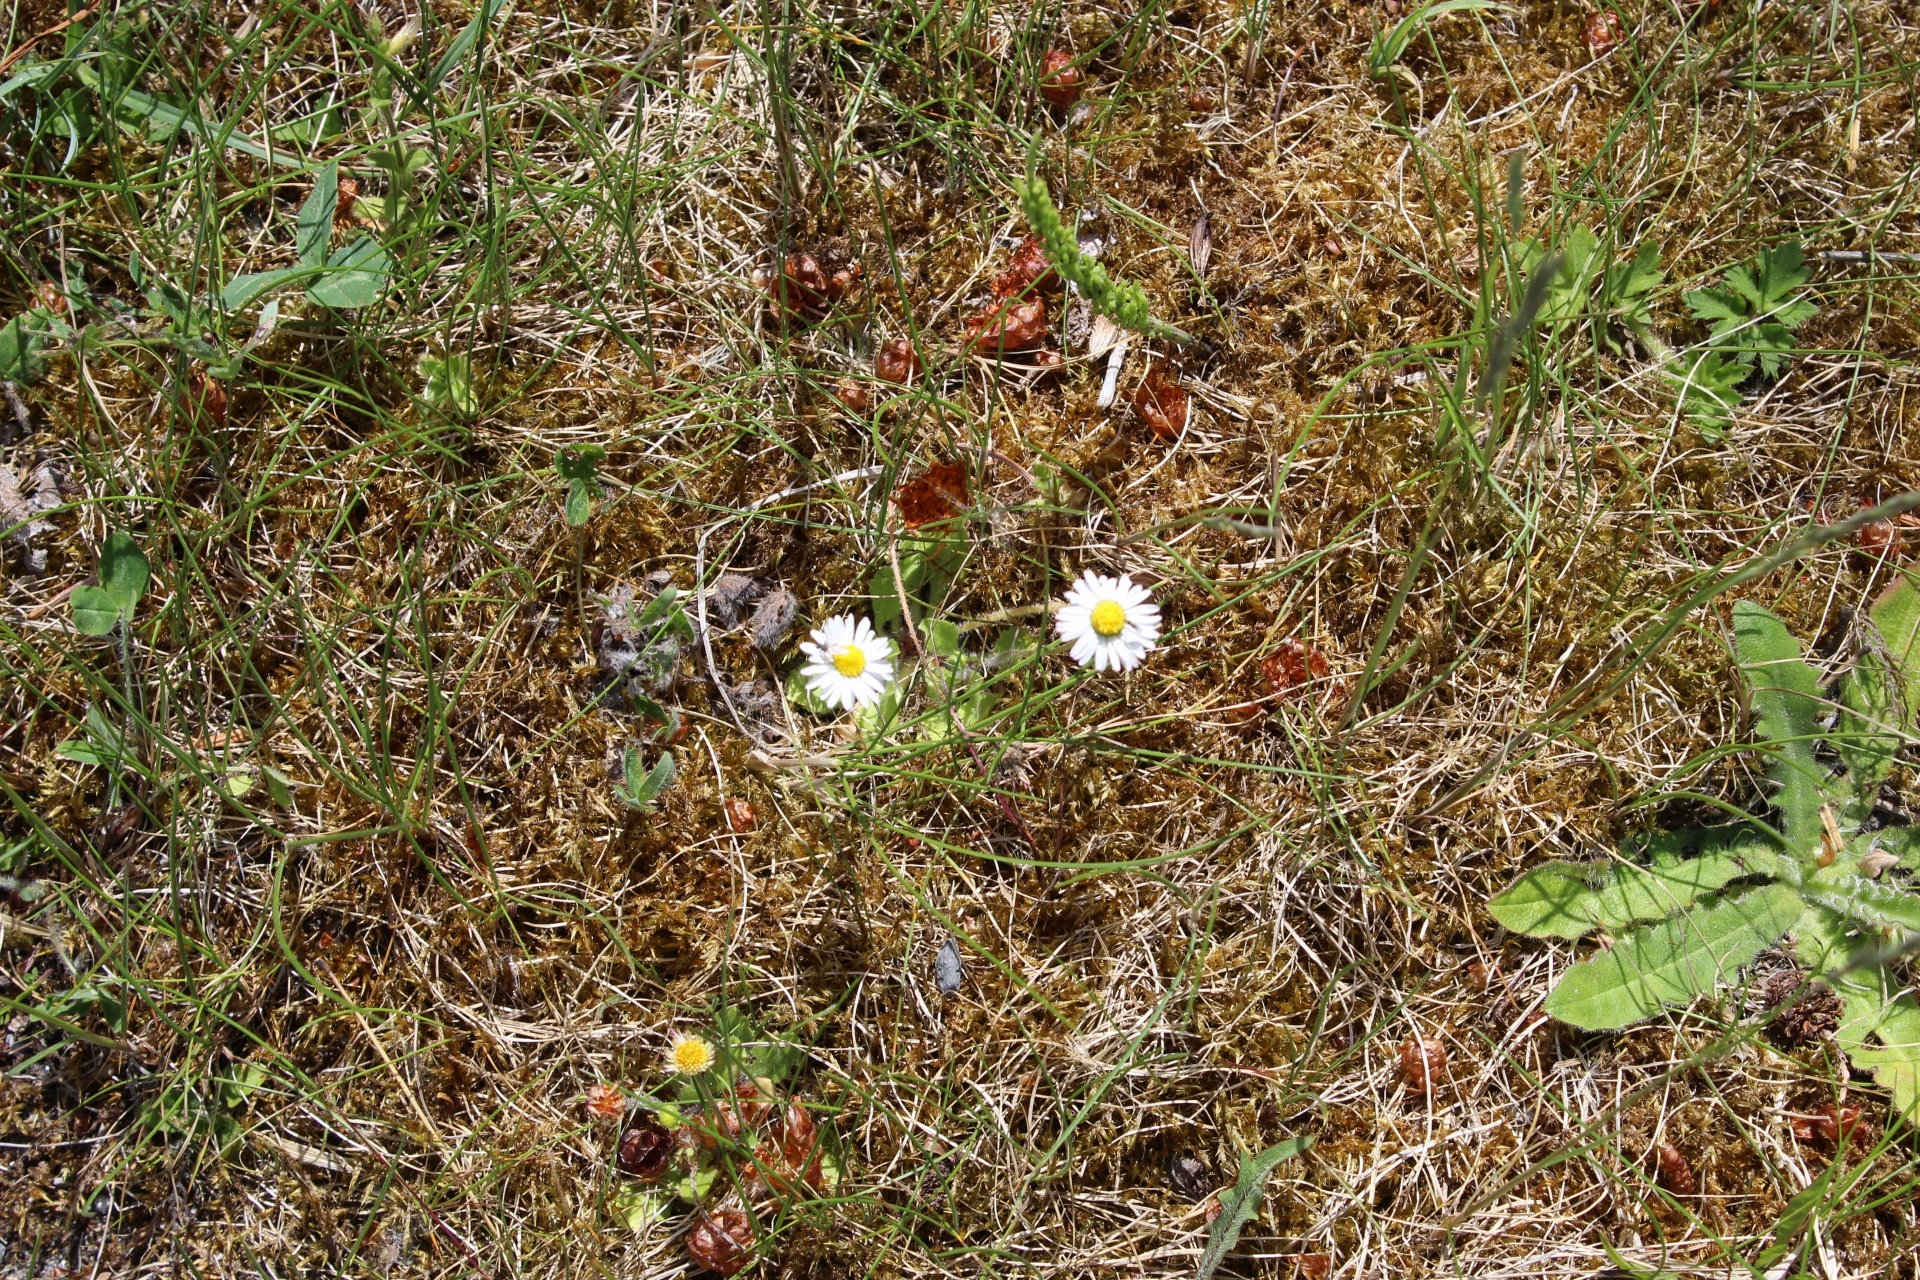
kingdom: Plantae
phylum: Tracheophyta
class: Magnoliopsida
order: Asterales
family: Asteraceae
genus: Bellis
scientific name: Bellis perennis
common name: Lawndaisy
